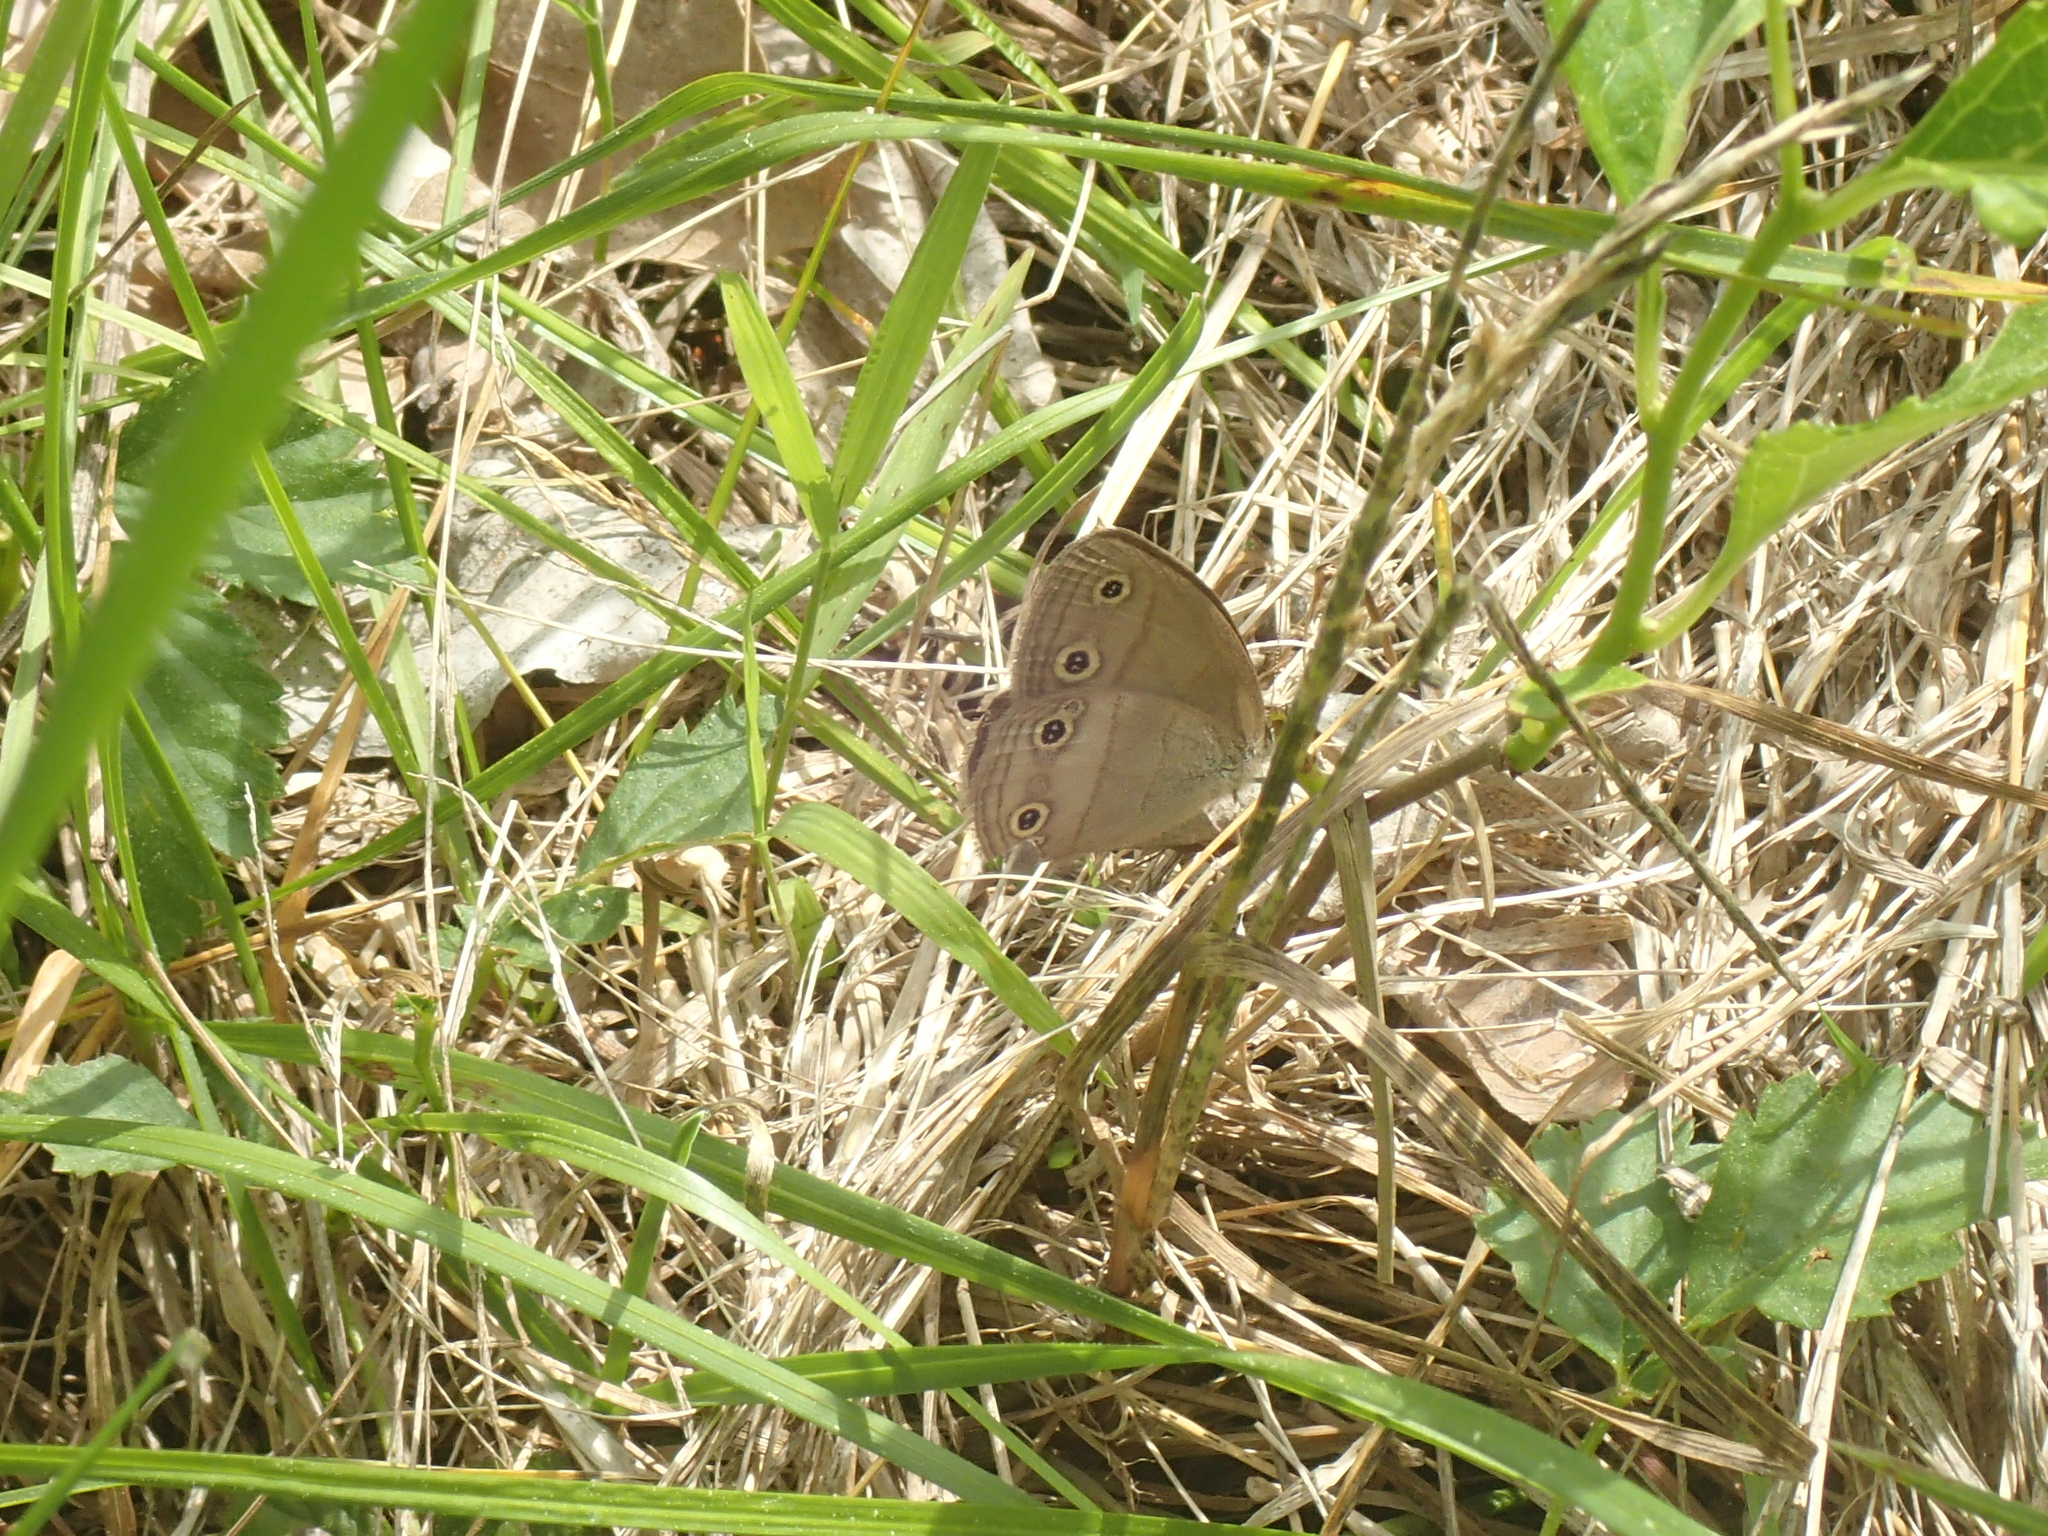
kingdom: Animalia
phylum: Arthropoda
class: Insecta
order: Lepidoptera
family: Nymphalidae
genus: Euptychia
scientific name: Euptychia cymela
